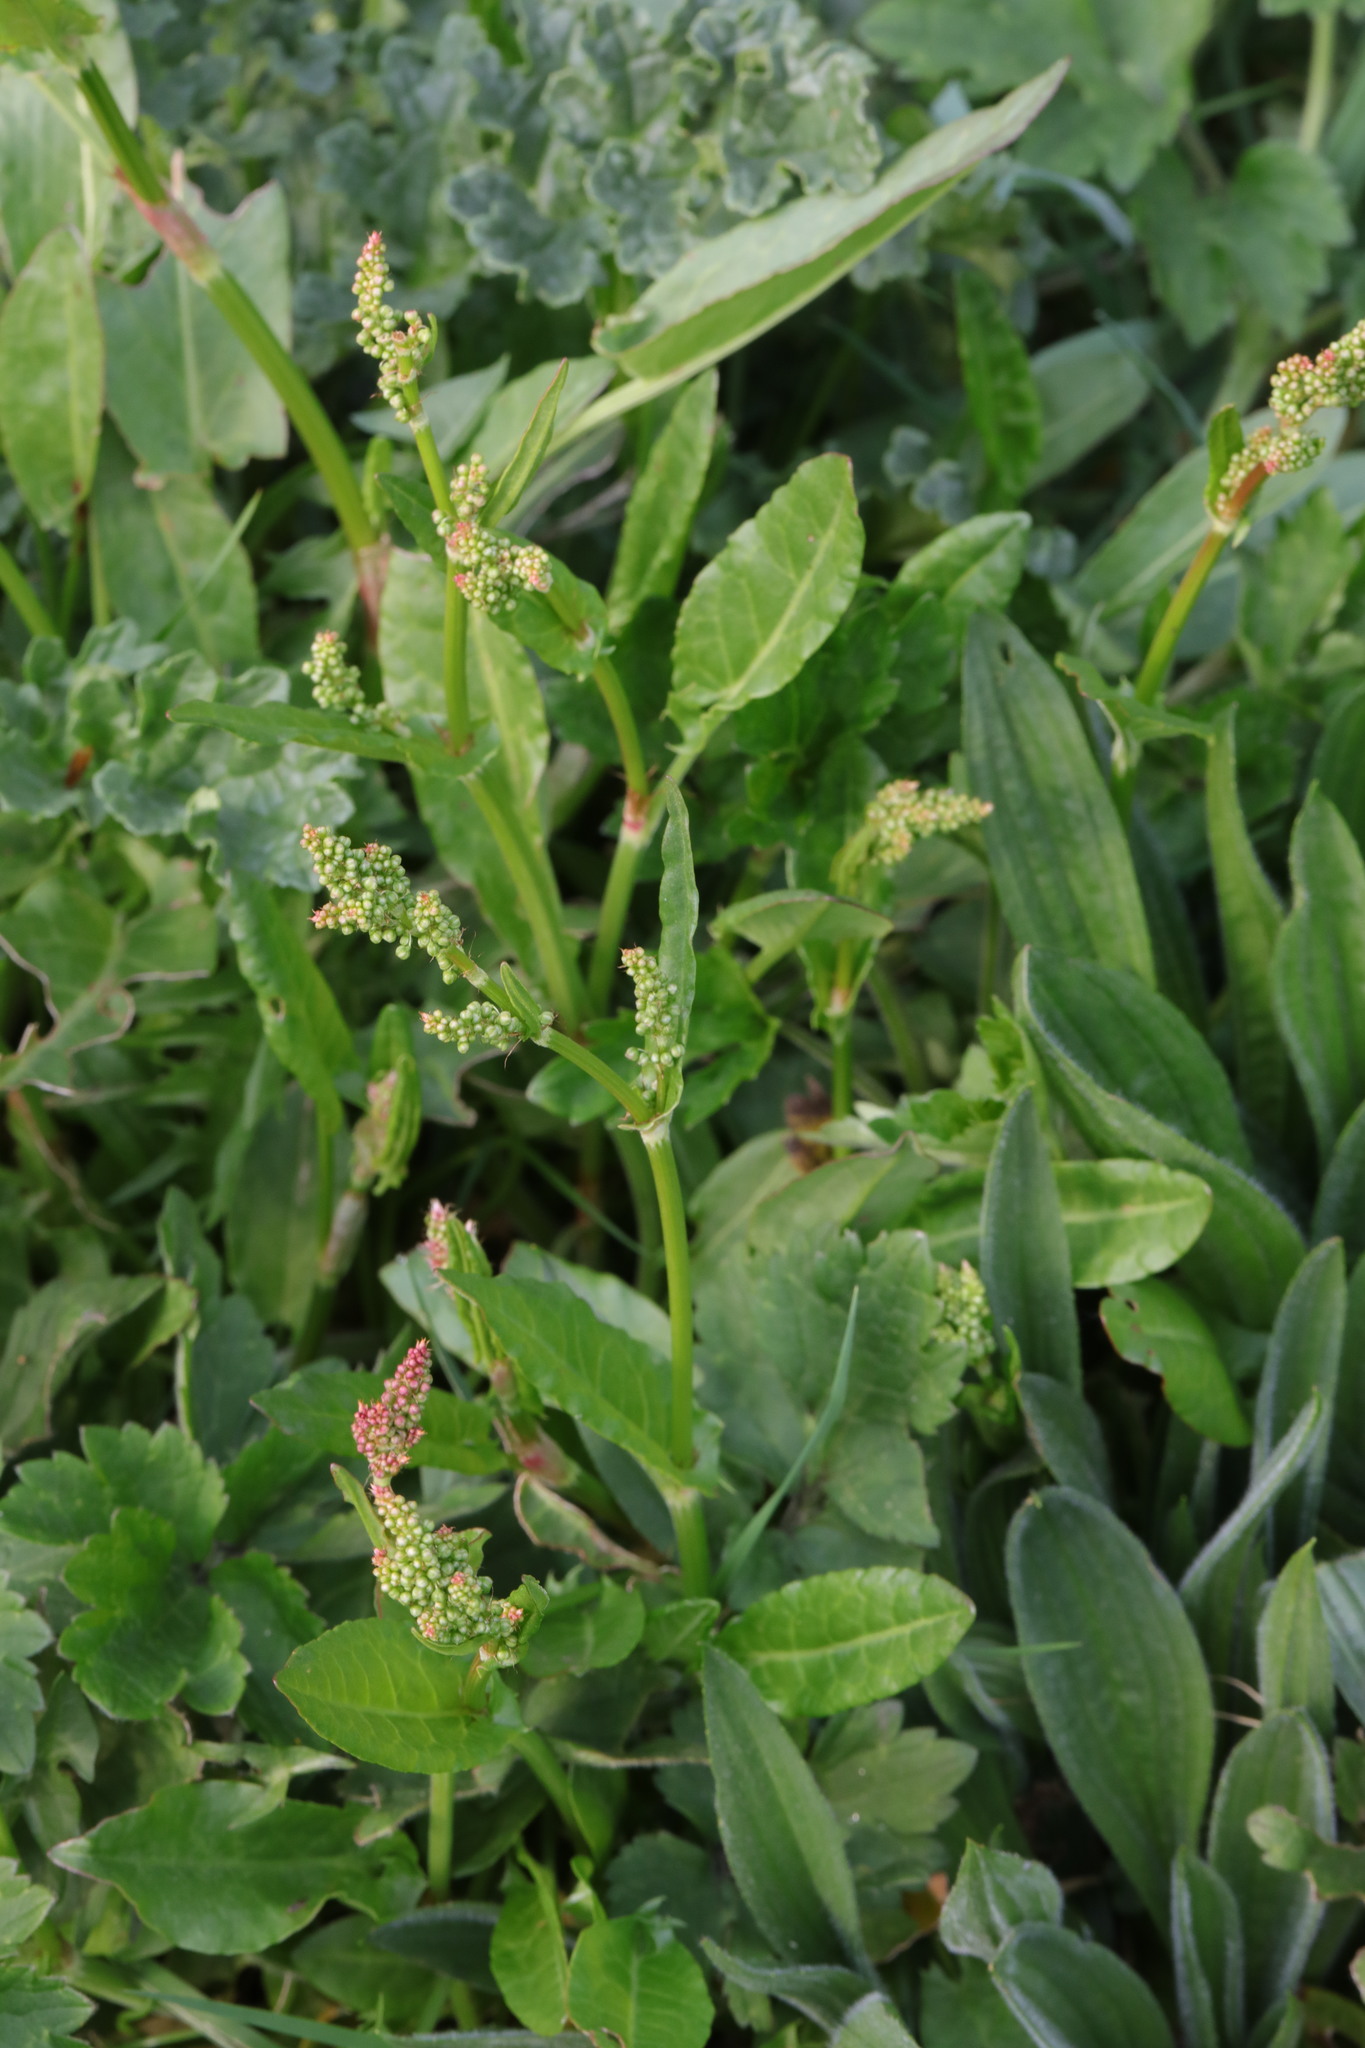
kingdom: Plantae
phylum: Tracheophyta
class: Magnoliopsida
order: Caryophyllales
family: Polygonaceae
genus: Rumex
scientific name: Rumex acetosa
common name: Garden sorrel
